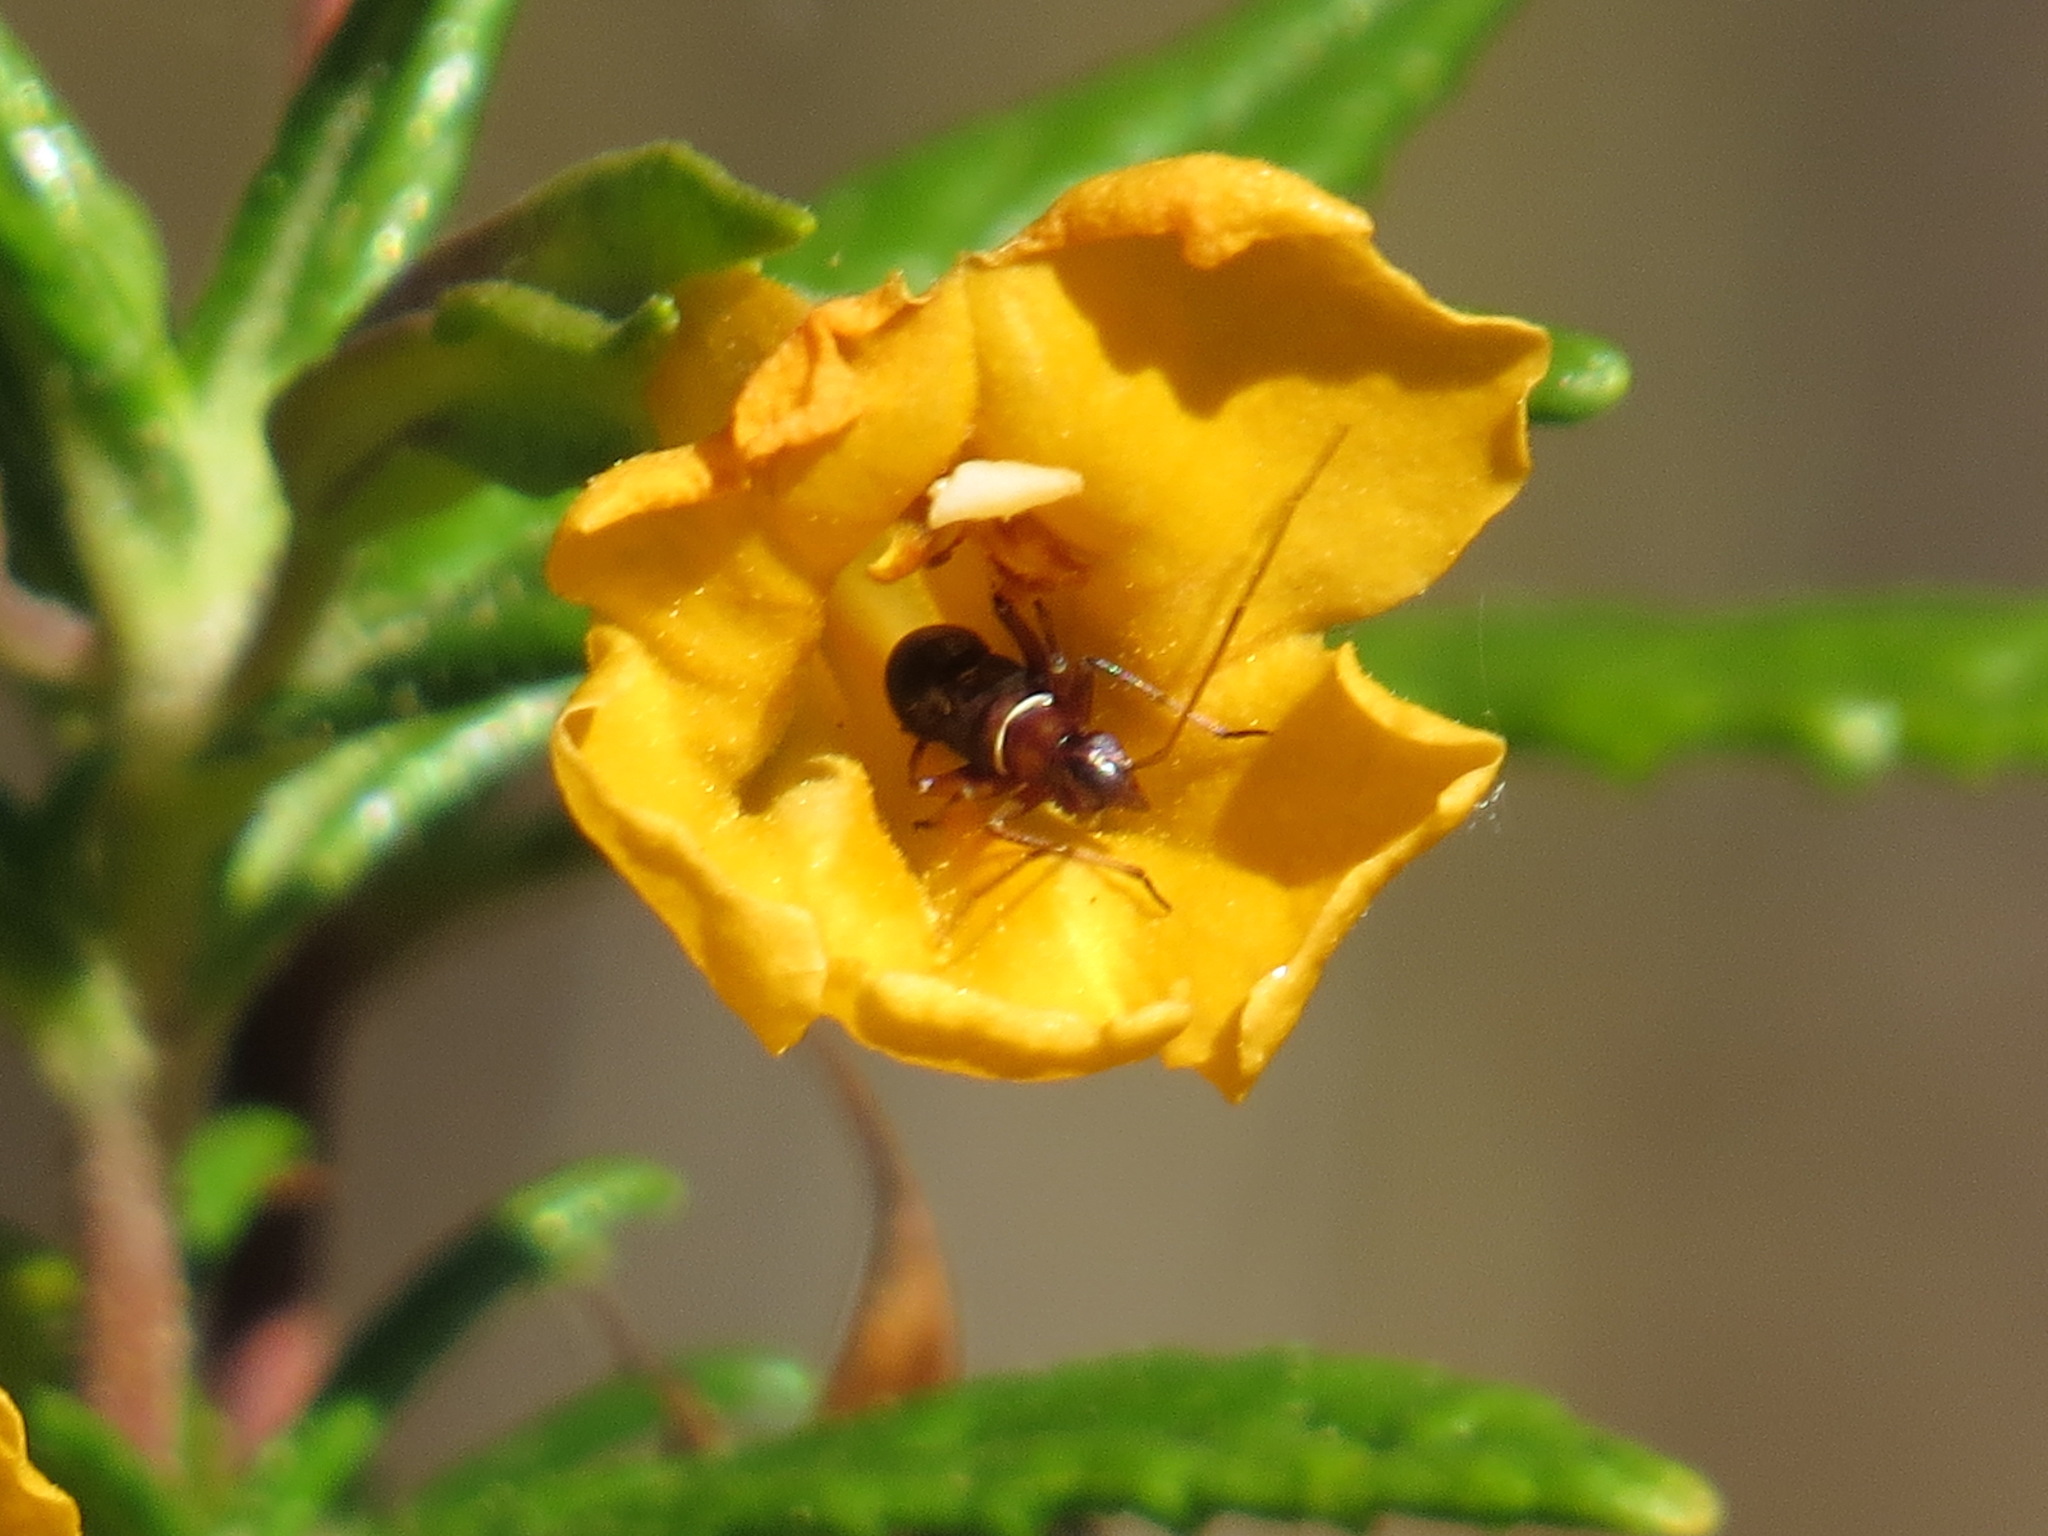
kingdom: Animalia
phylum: Arthropoda
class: Insecta
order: Hemiptera
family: Miridae
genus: Closterocoris
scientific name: Closterocoris amoenus
